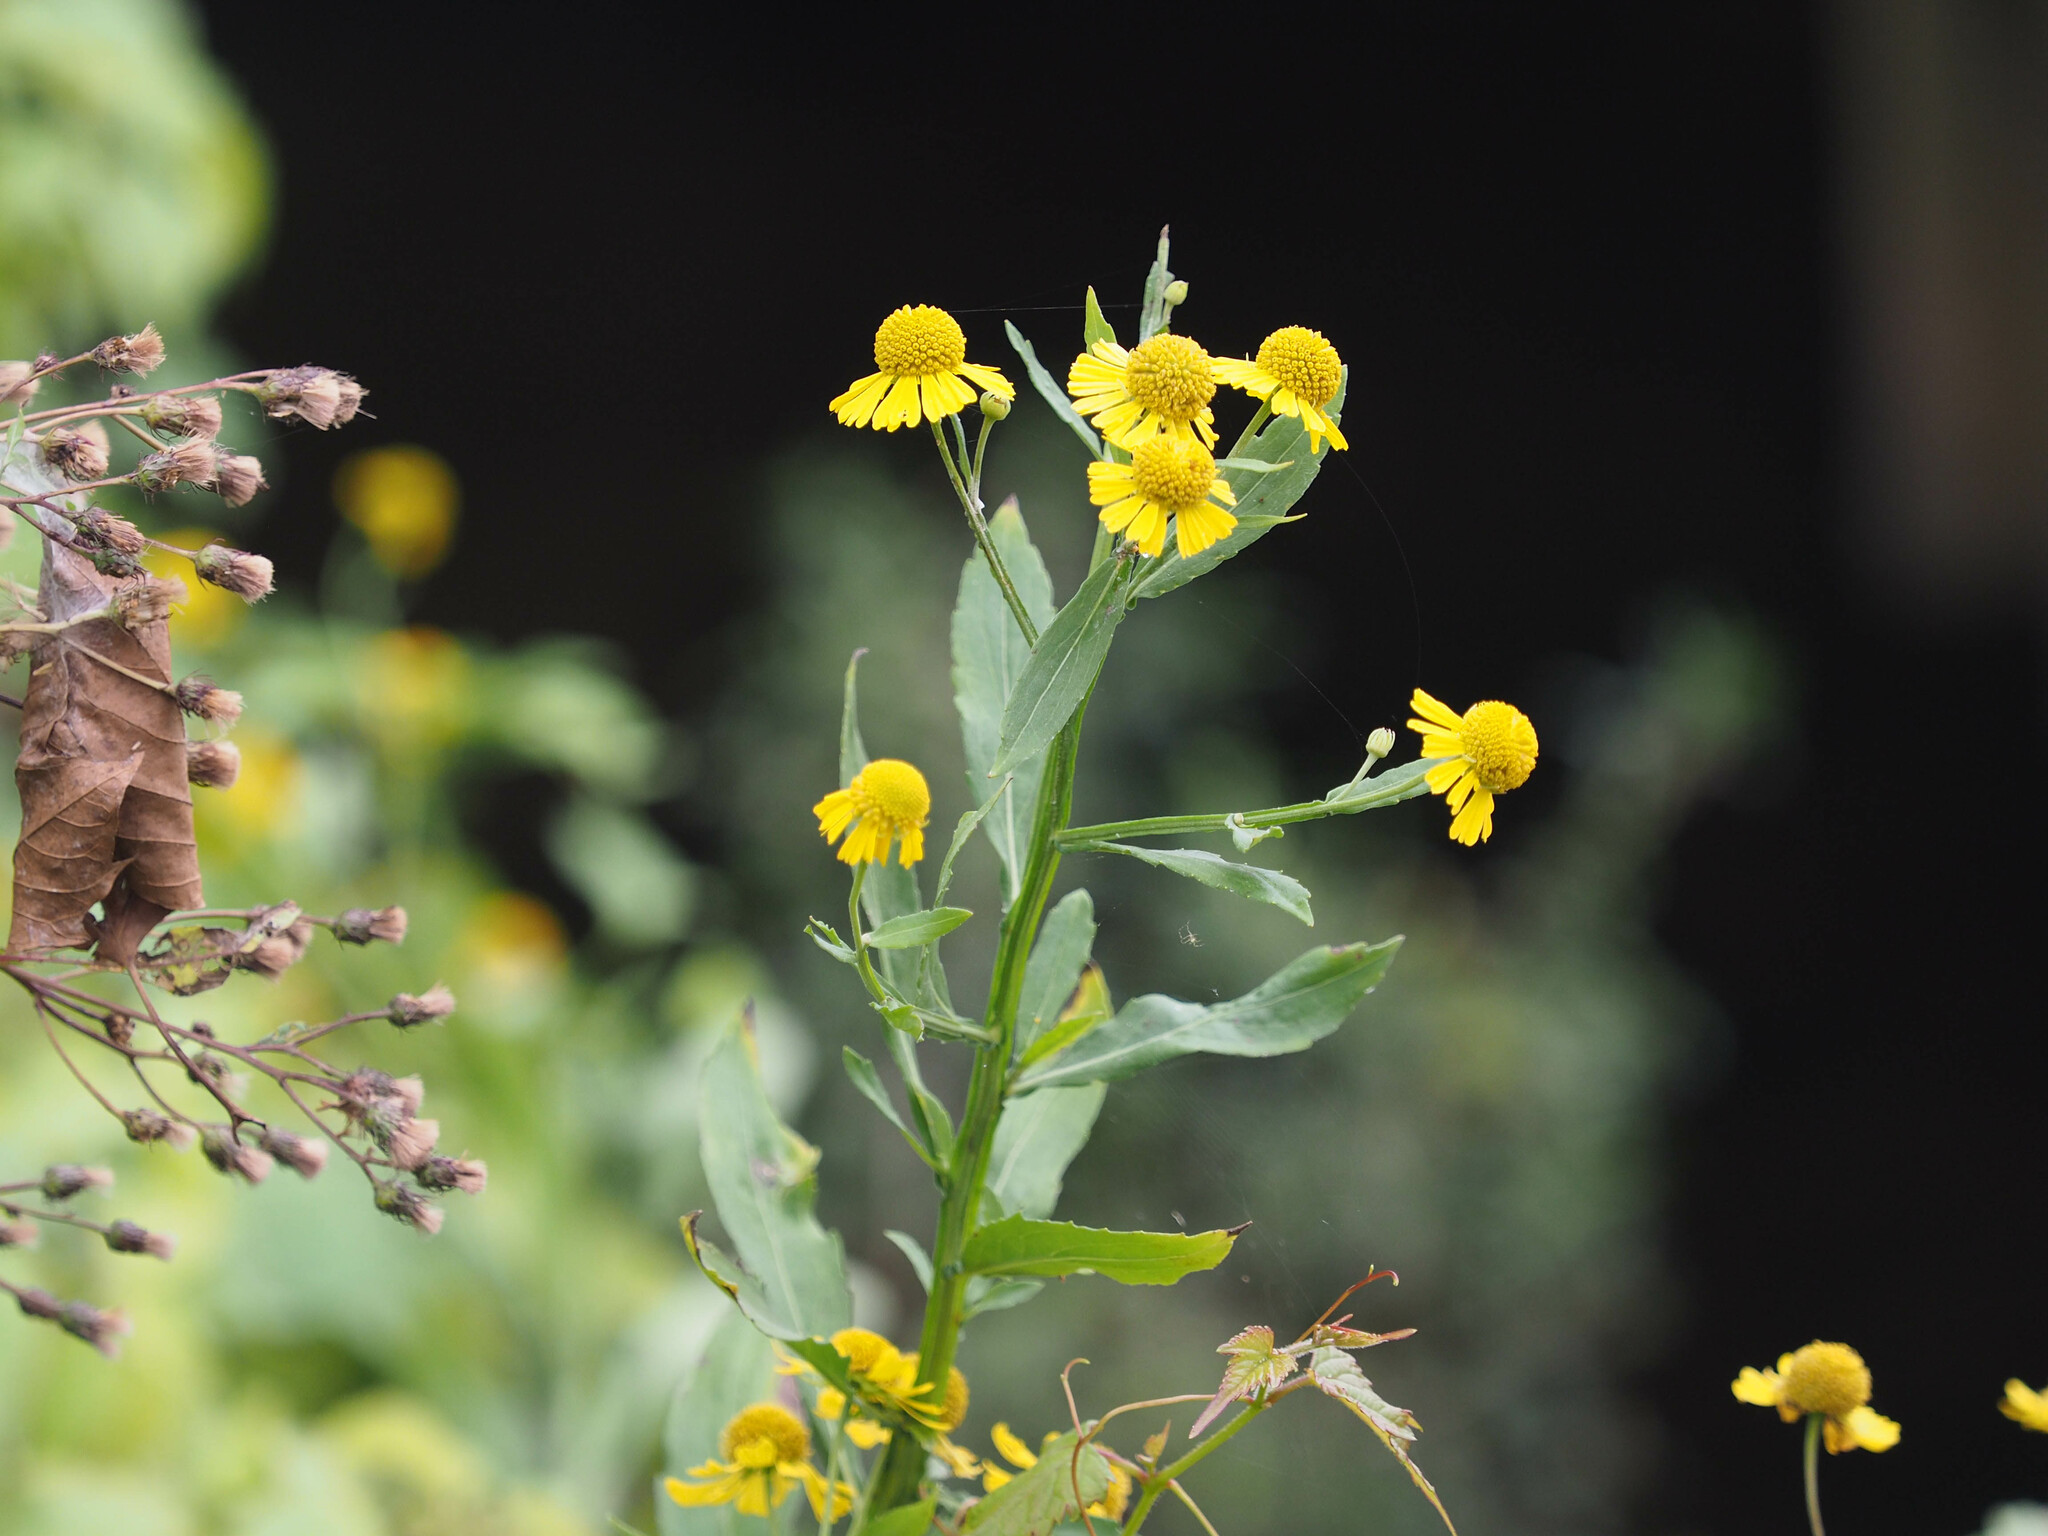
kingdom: Plantae
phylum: Tracheophyta
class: Magnoliopsida
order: Asterales
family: Asteraceae
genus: Helenium
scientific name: Helenium autumnale
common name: Sneezeweed
